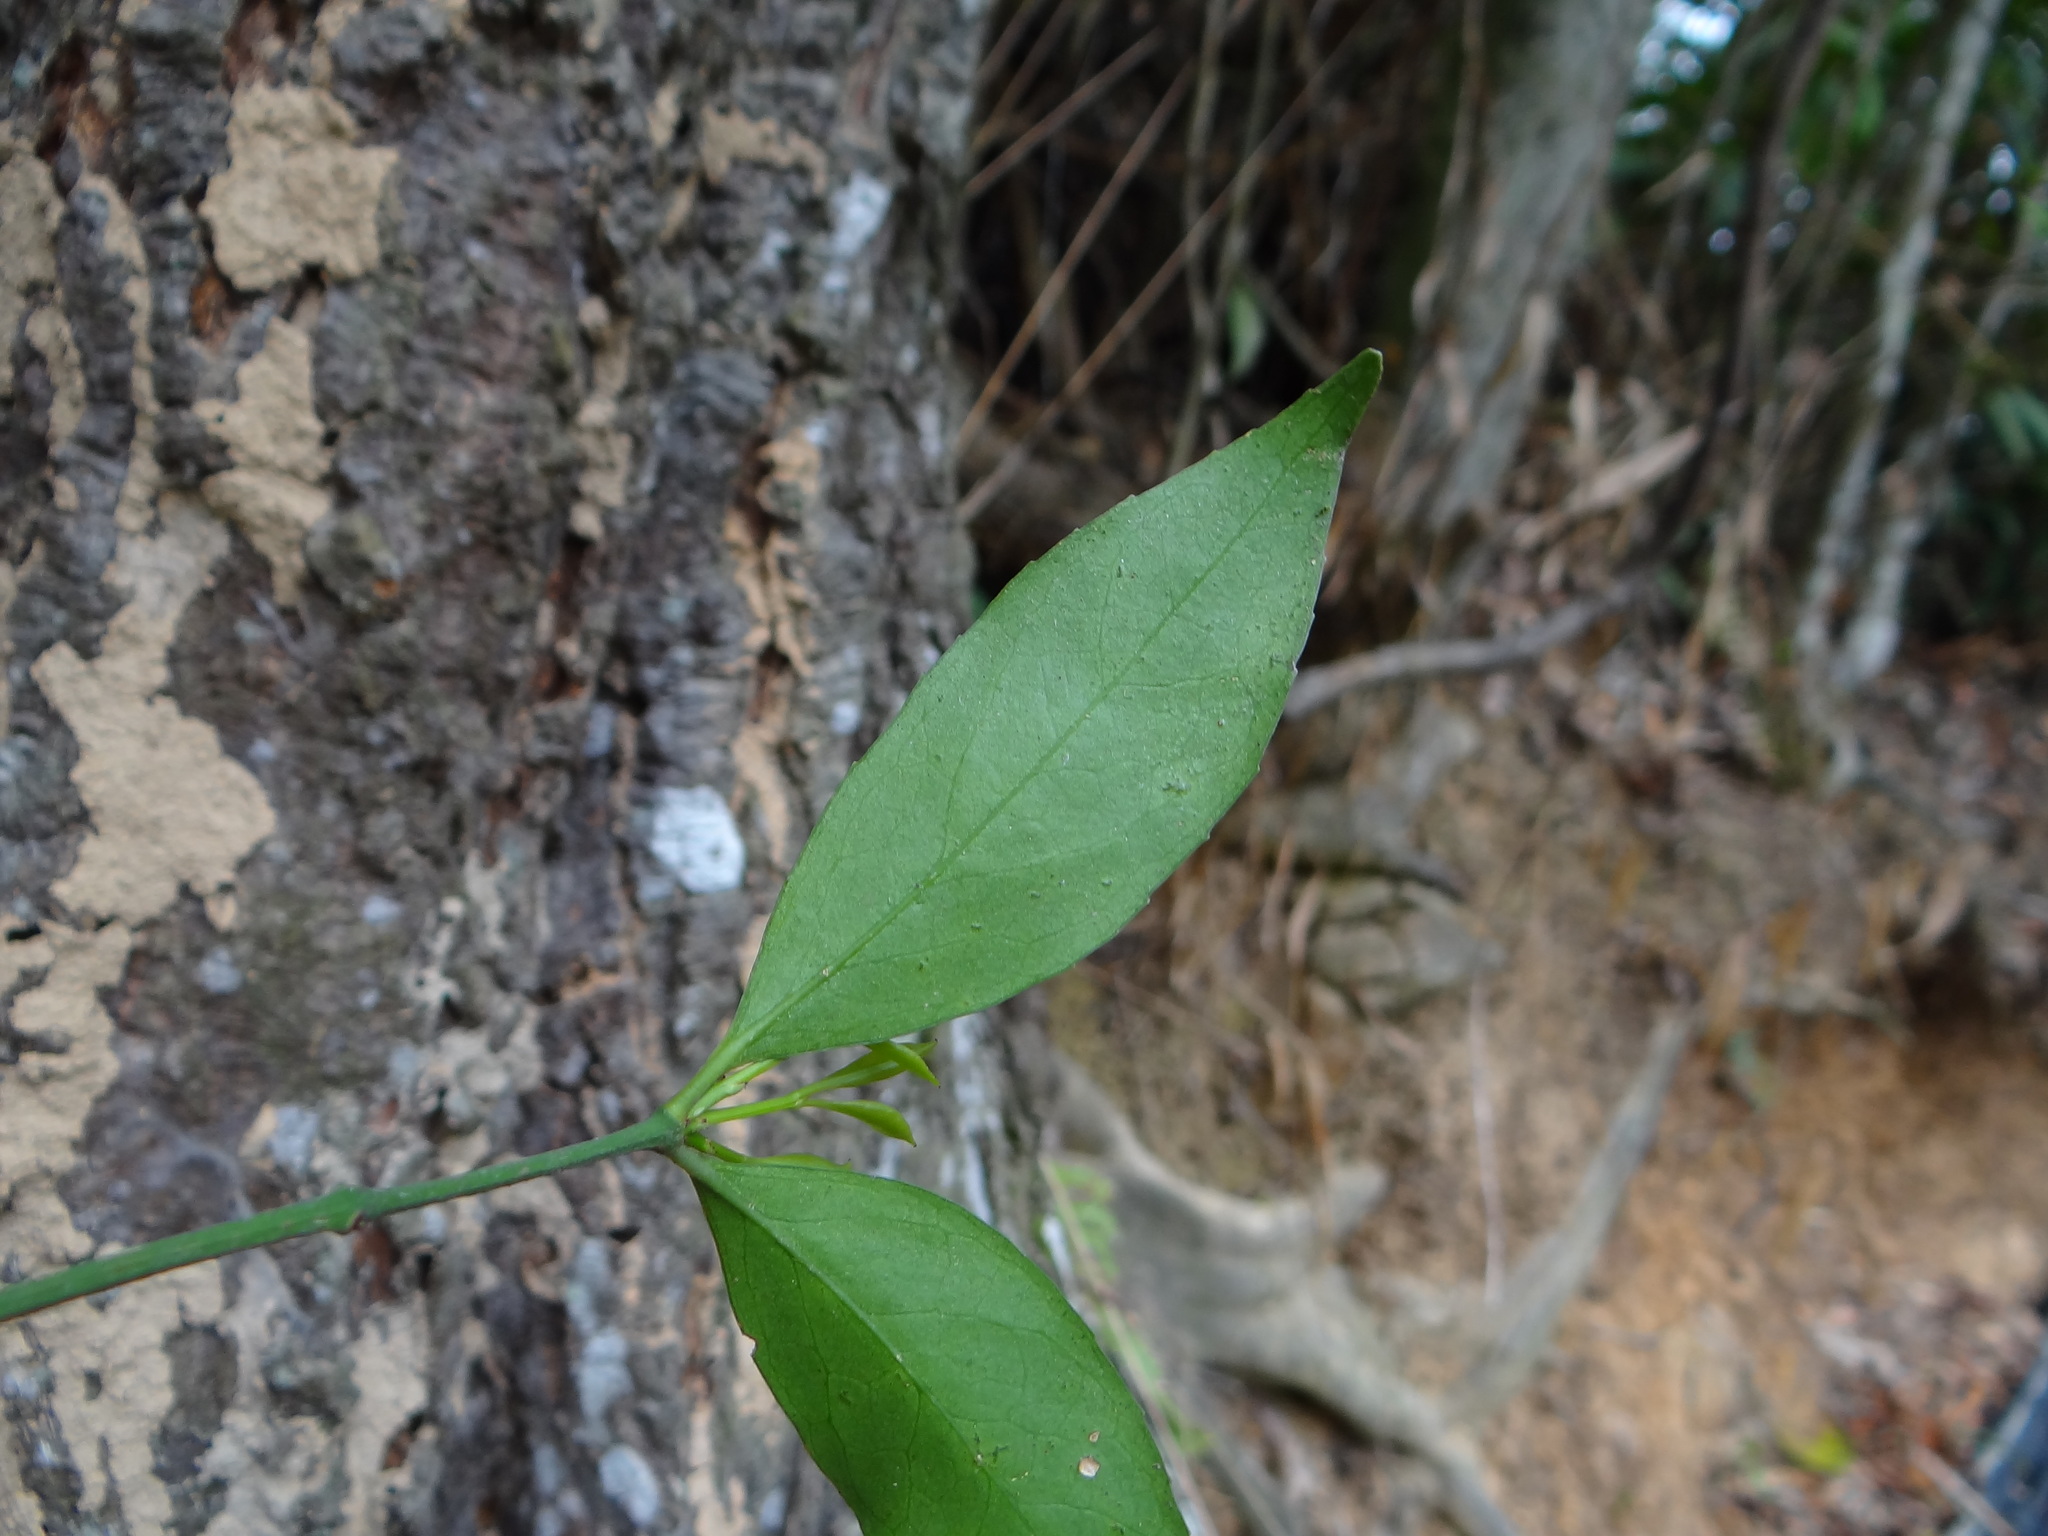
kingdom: Plantae
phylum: Tracheophyta
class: Magnoliopsida
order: Celastrales
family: Celastraceae
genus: Euonymus
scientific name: Euonymus laxiflorus
